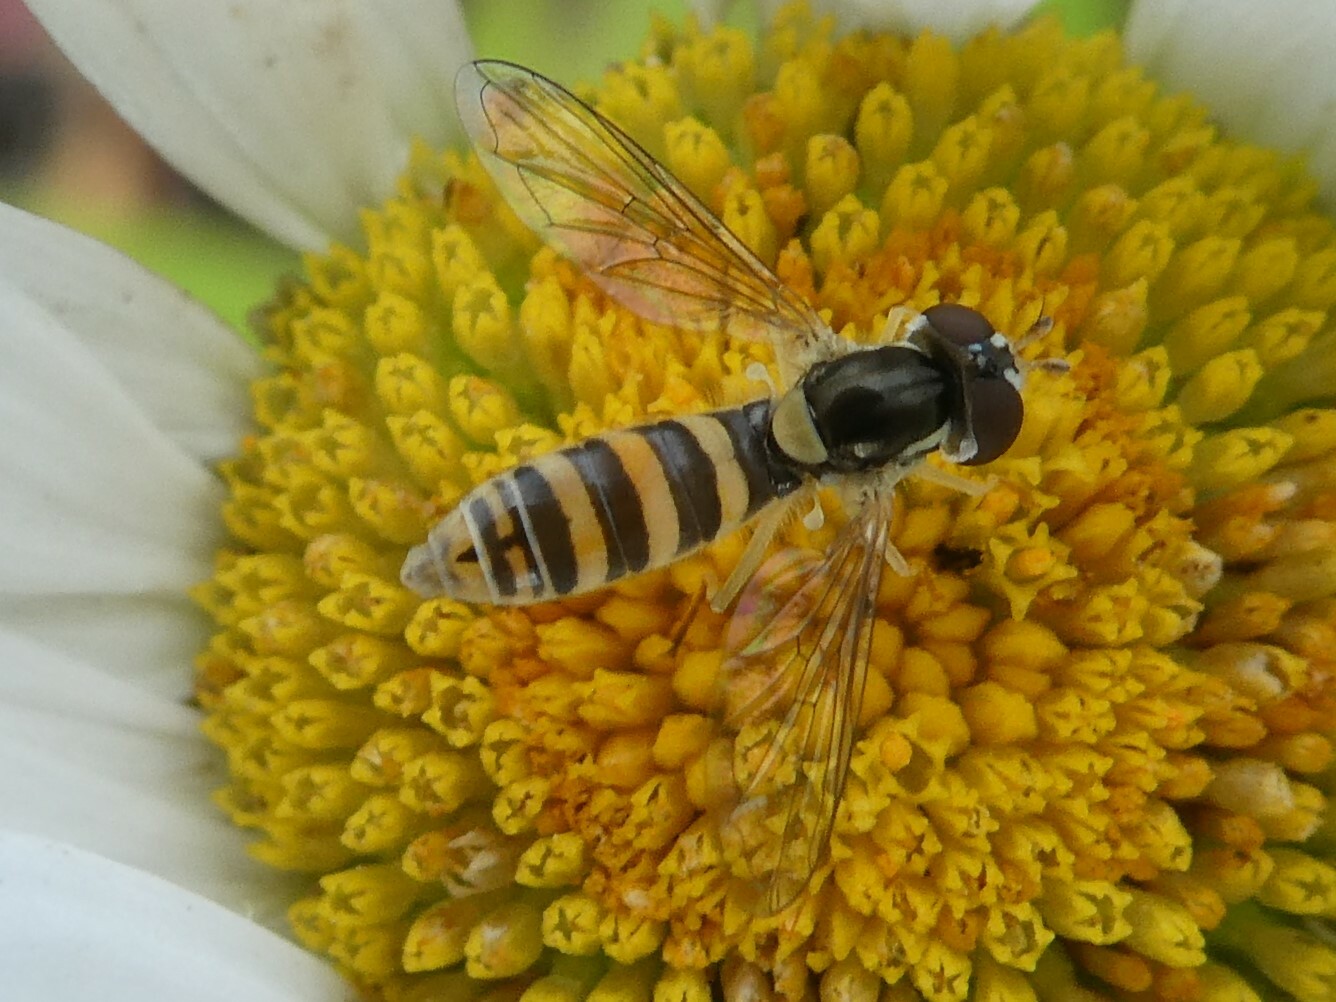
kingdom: Animalia
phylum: Arthropoda
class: Insecta
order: Diptera
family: Syrphidae
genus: Sphaerophoria
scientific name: Sphaerophoria contigua
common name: Tufted globetail
